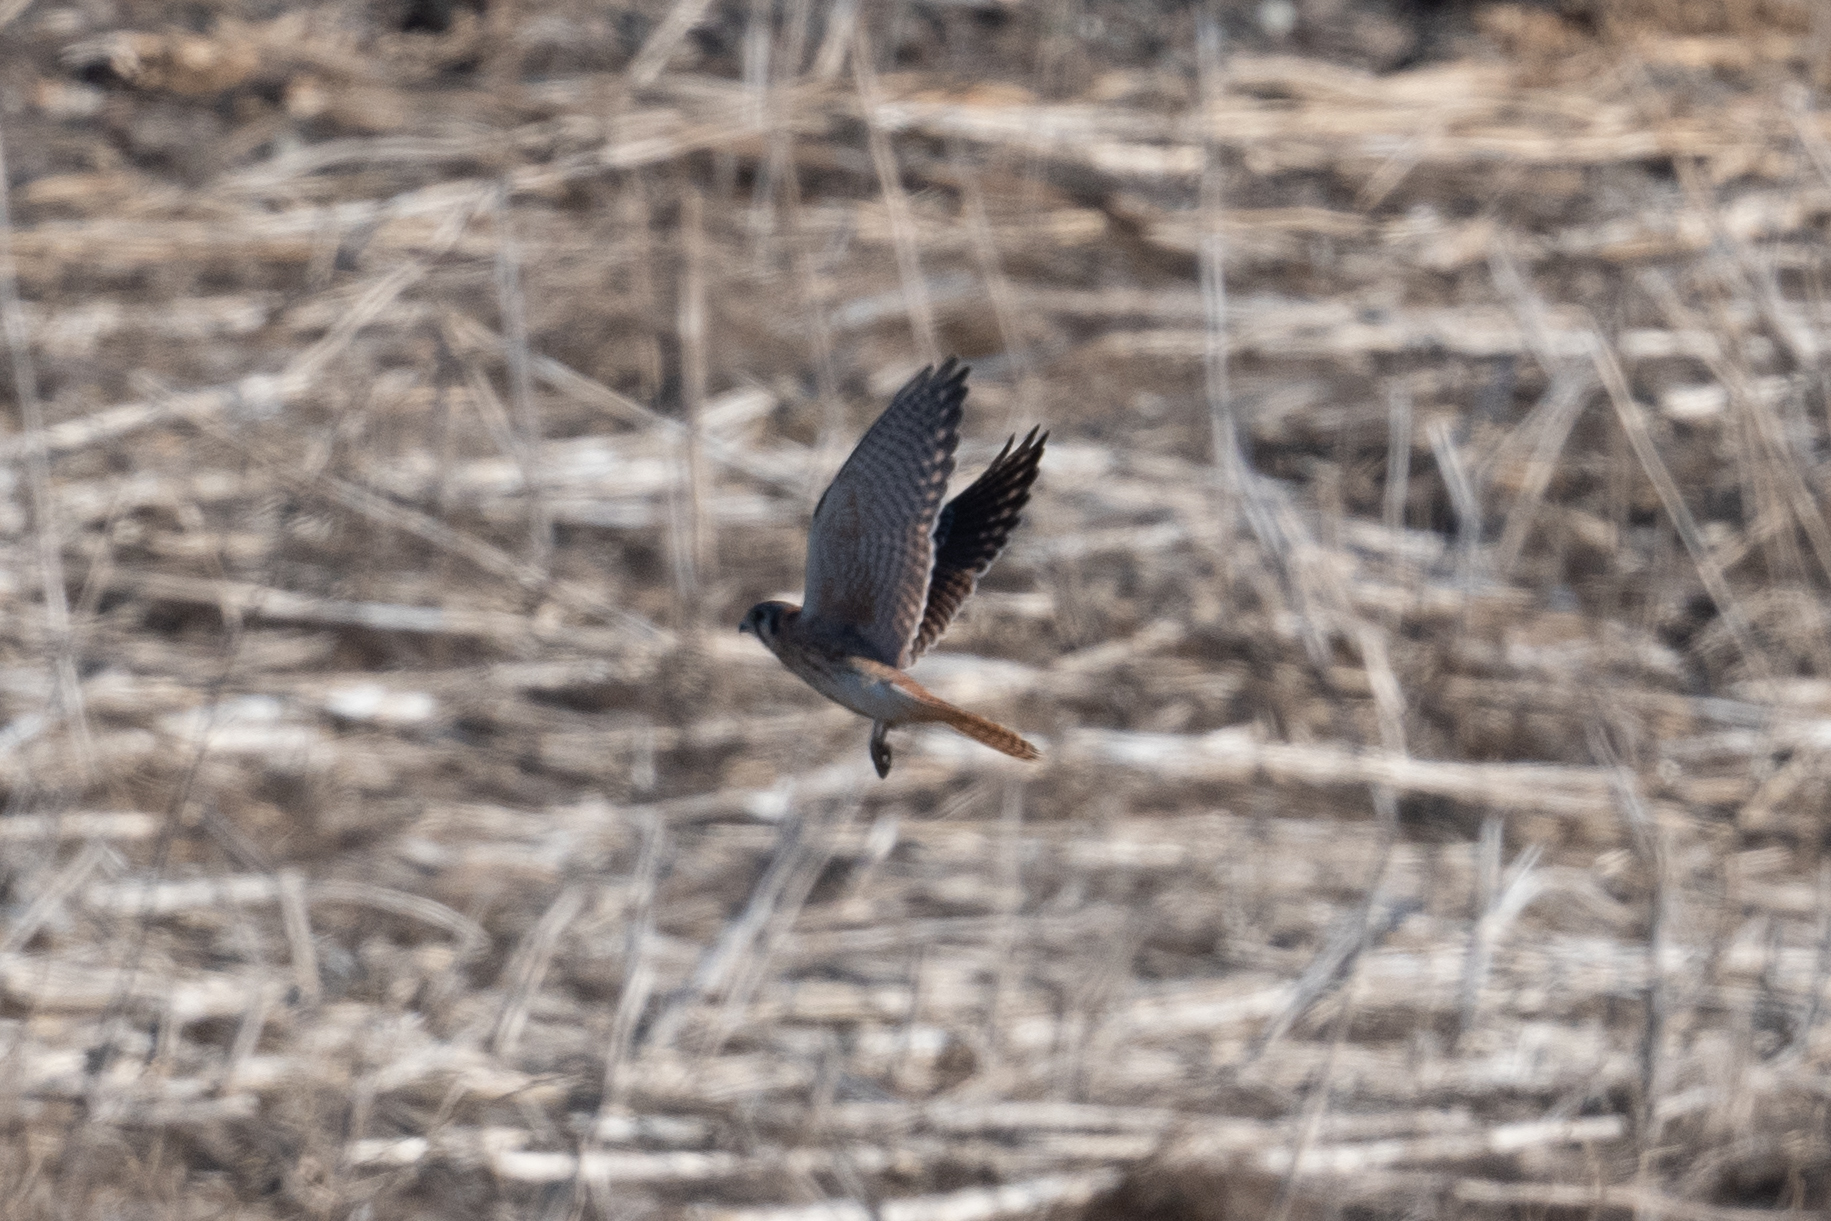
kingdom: Animalia
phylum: Chordata
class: Aves
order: Falconiformes
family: Falconidae
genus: Falco
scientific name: Falco sparverius
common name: American kestrel
